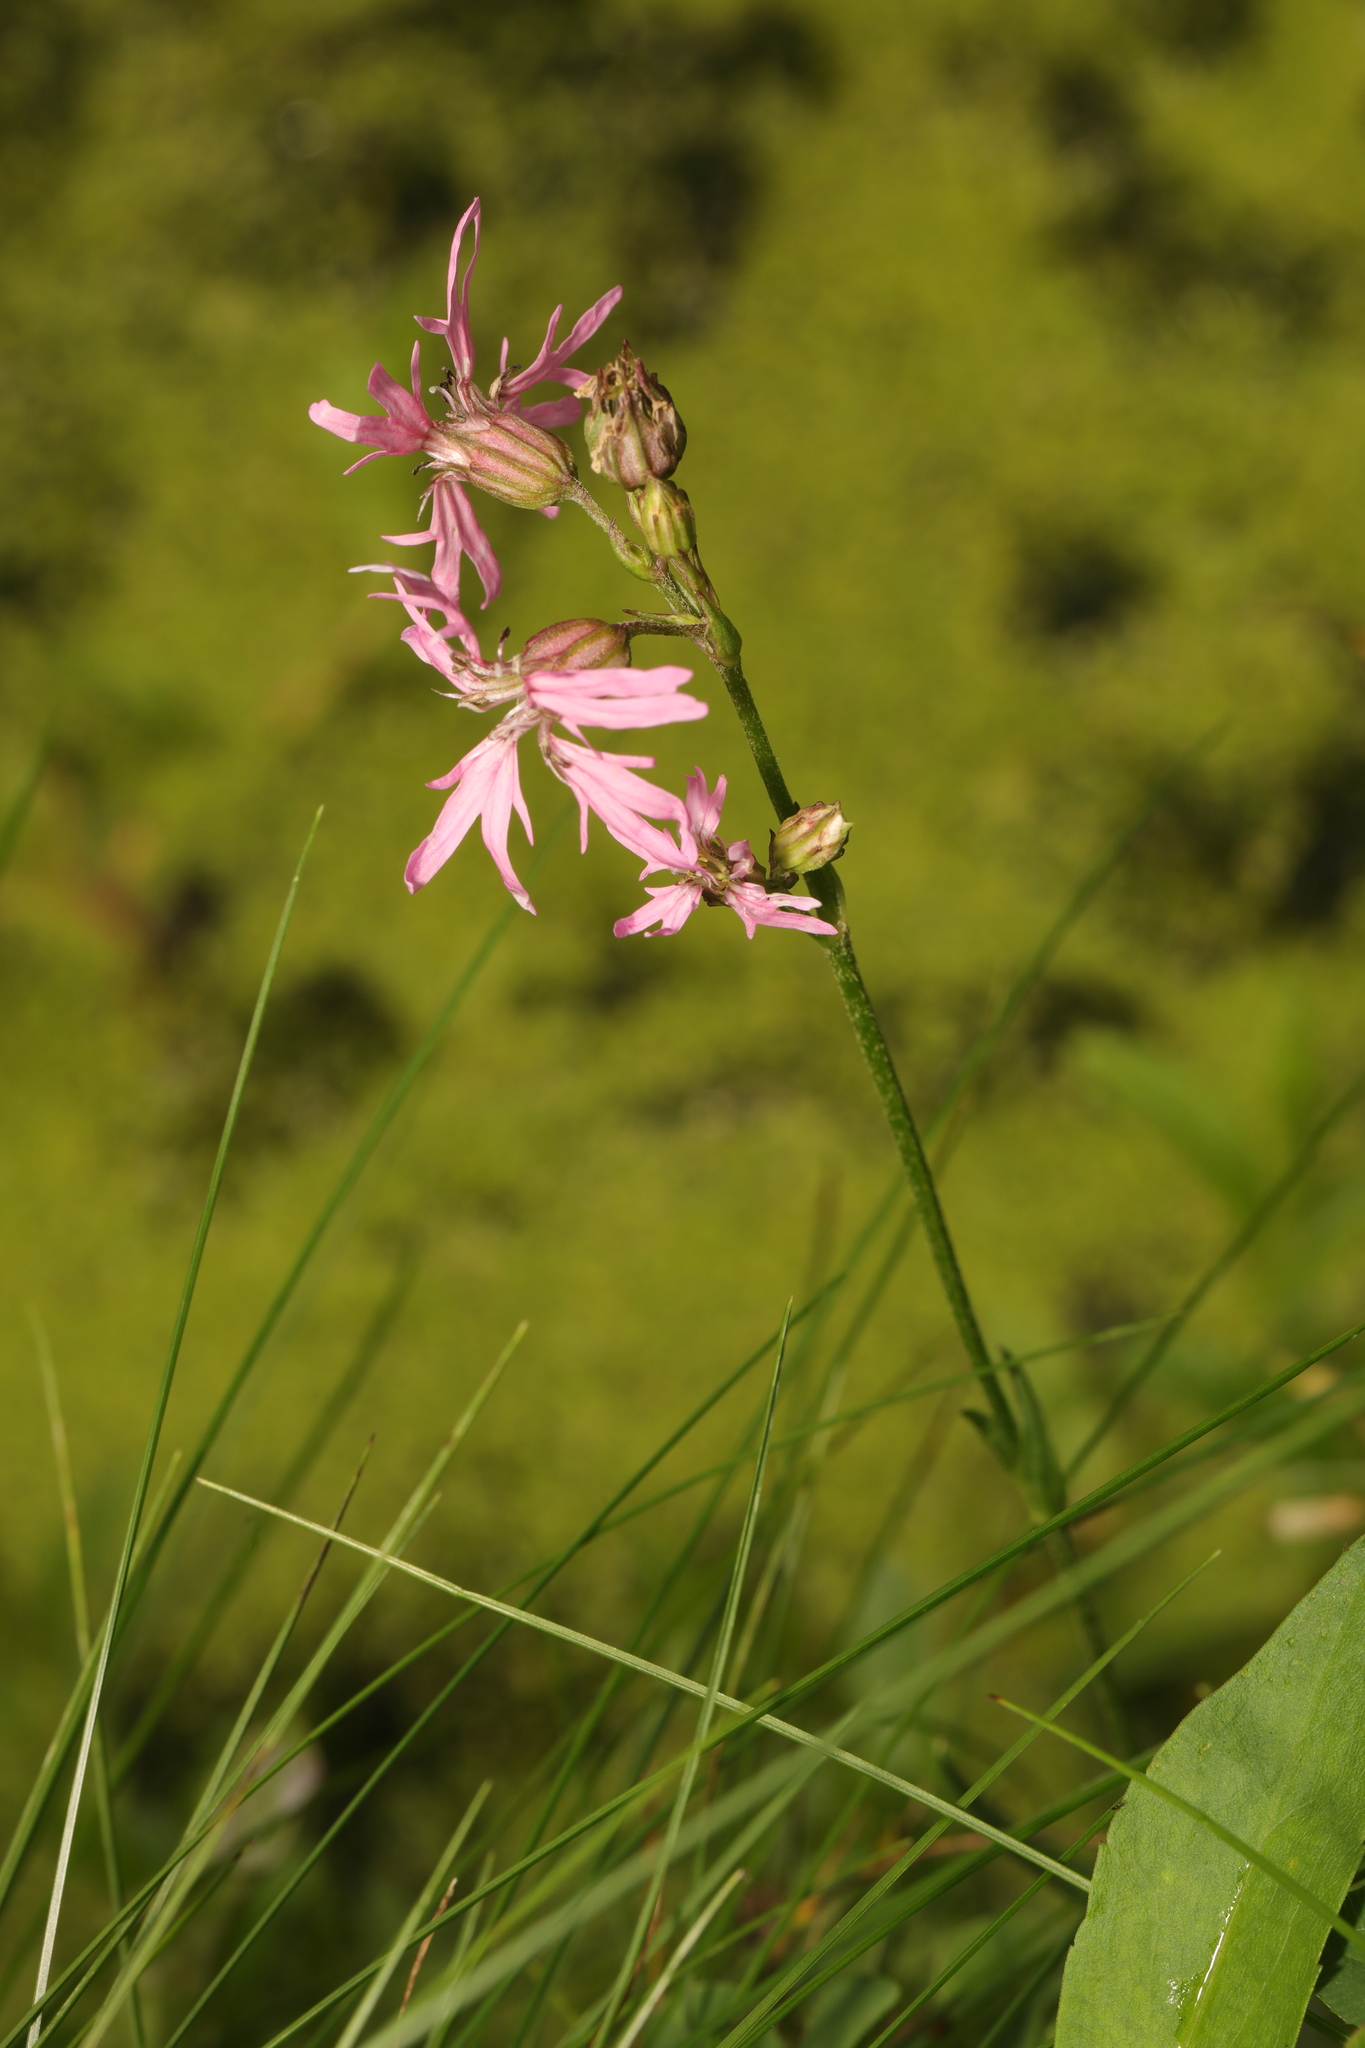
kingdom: Plantae
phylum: Tracheophyta
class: Magnoliopsida
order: Caryophyllales
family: Caryophyllaceae
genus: Silene
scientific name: Silene flos-cuculi
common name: Ragged-robin
